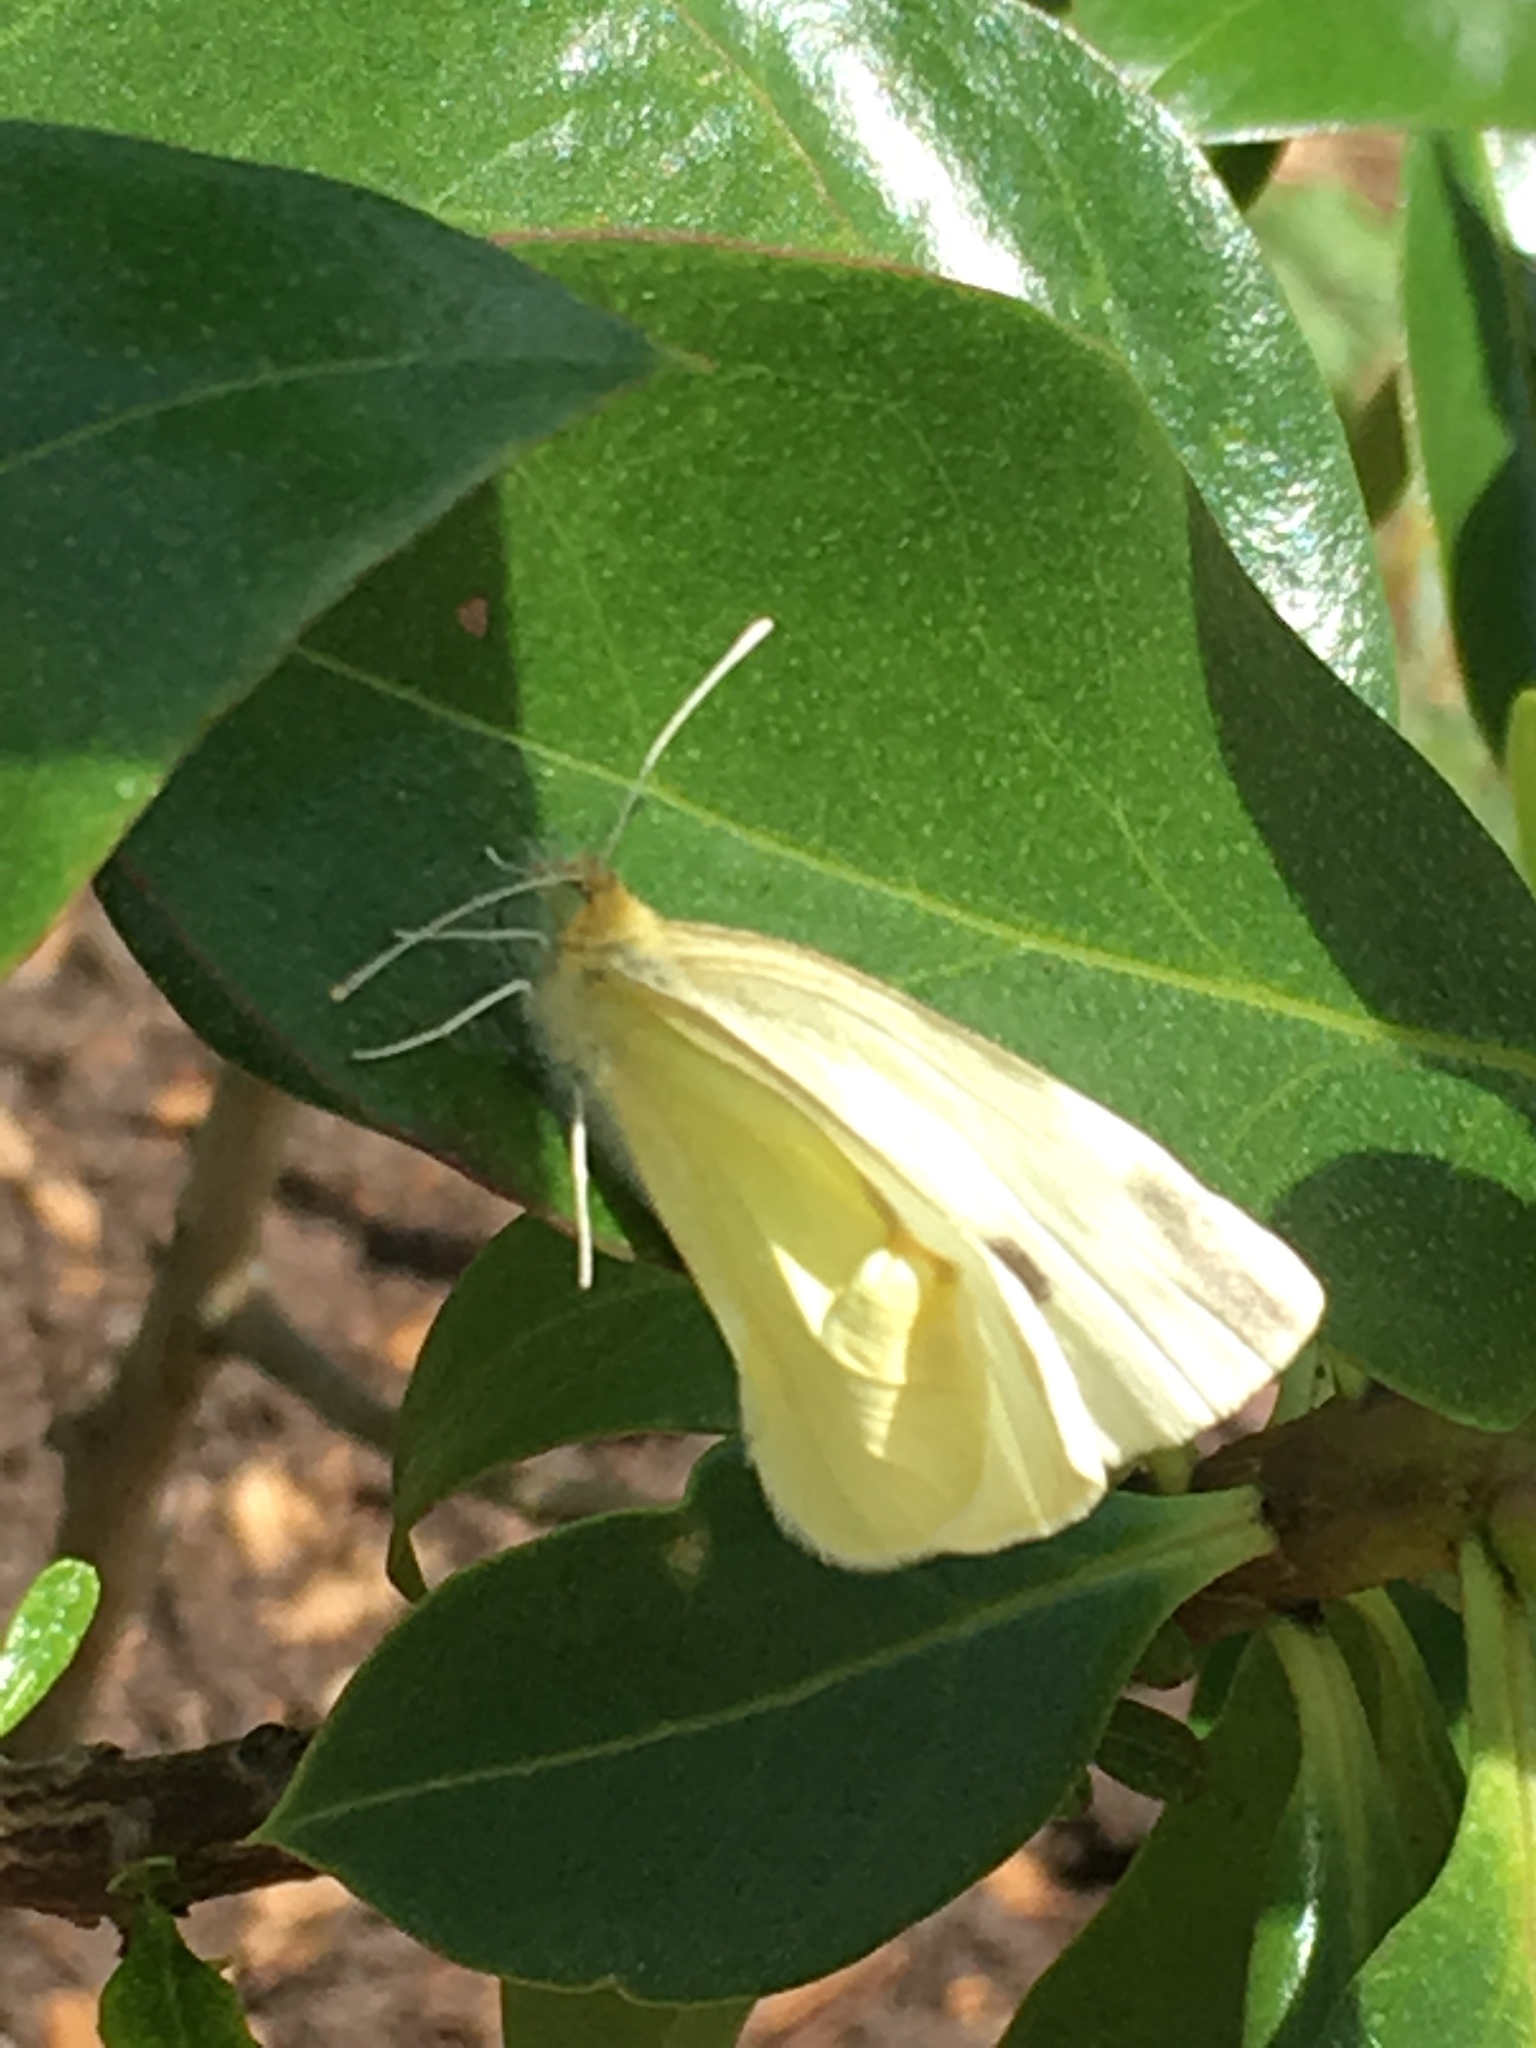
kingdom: Animalia
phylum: Arthropoda
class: Insecta
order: Lepidoptera
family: Pieridae
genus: Pieris
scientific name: Pieris rapae
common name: Small white
